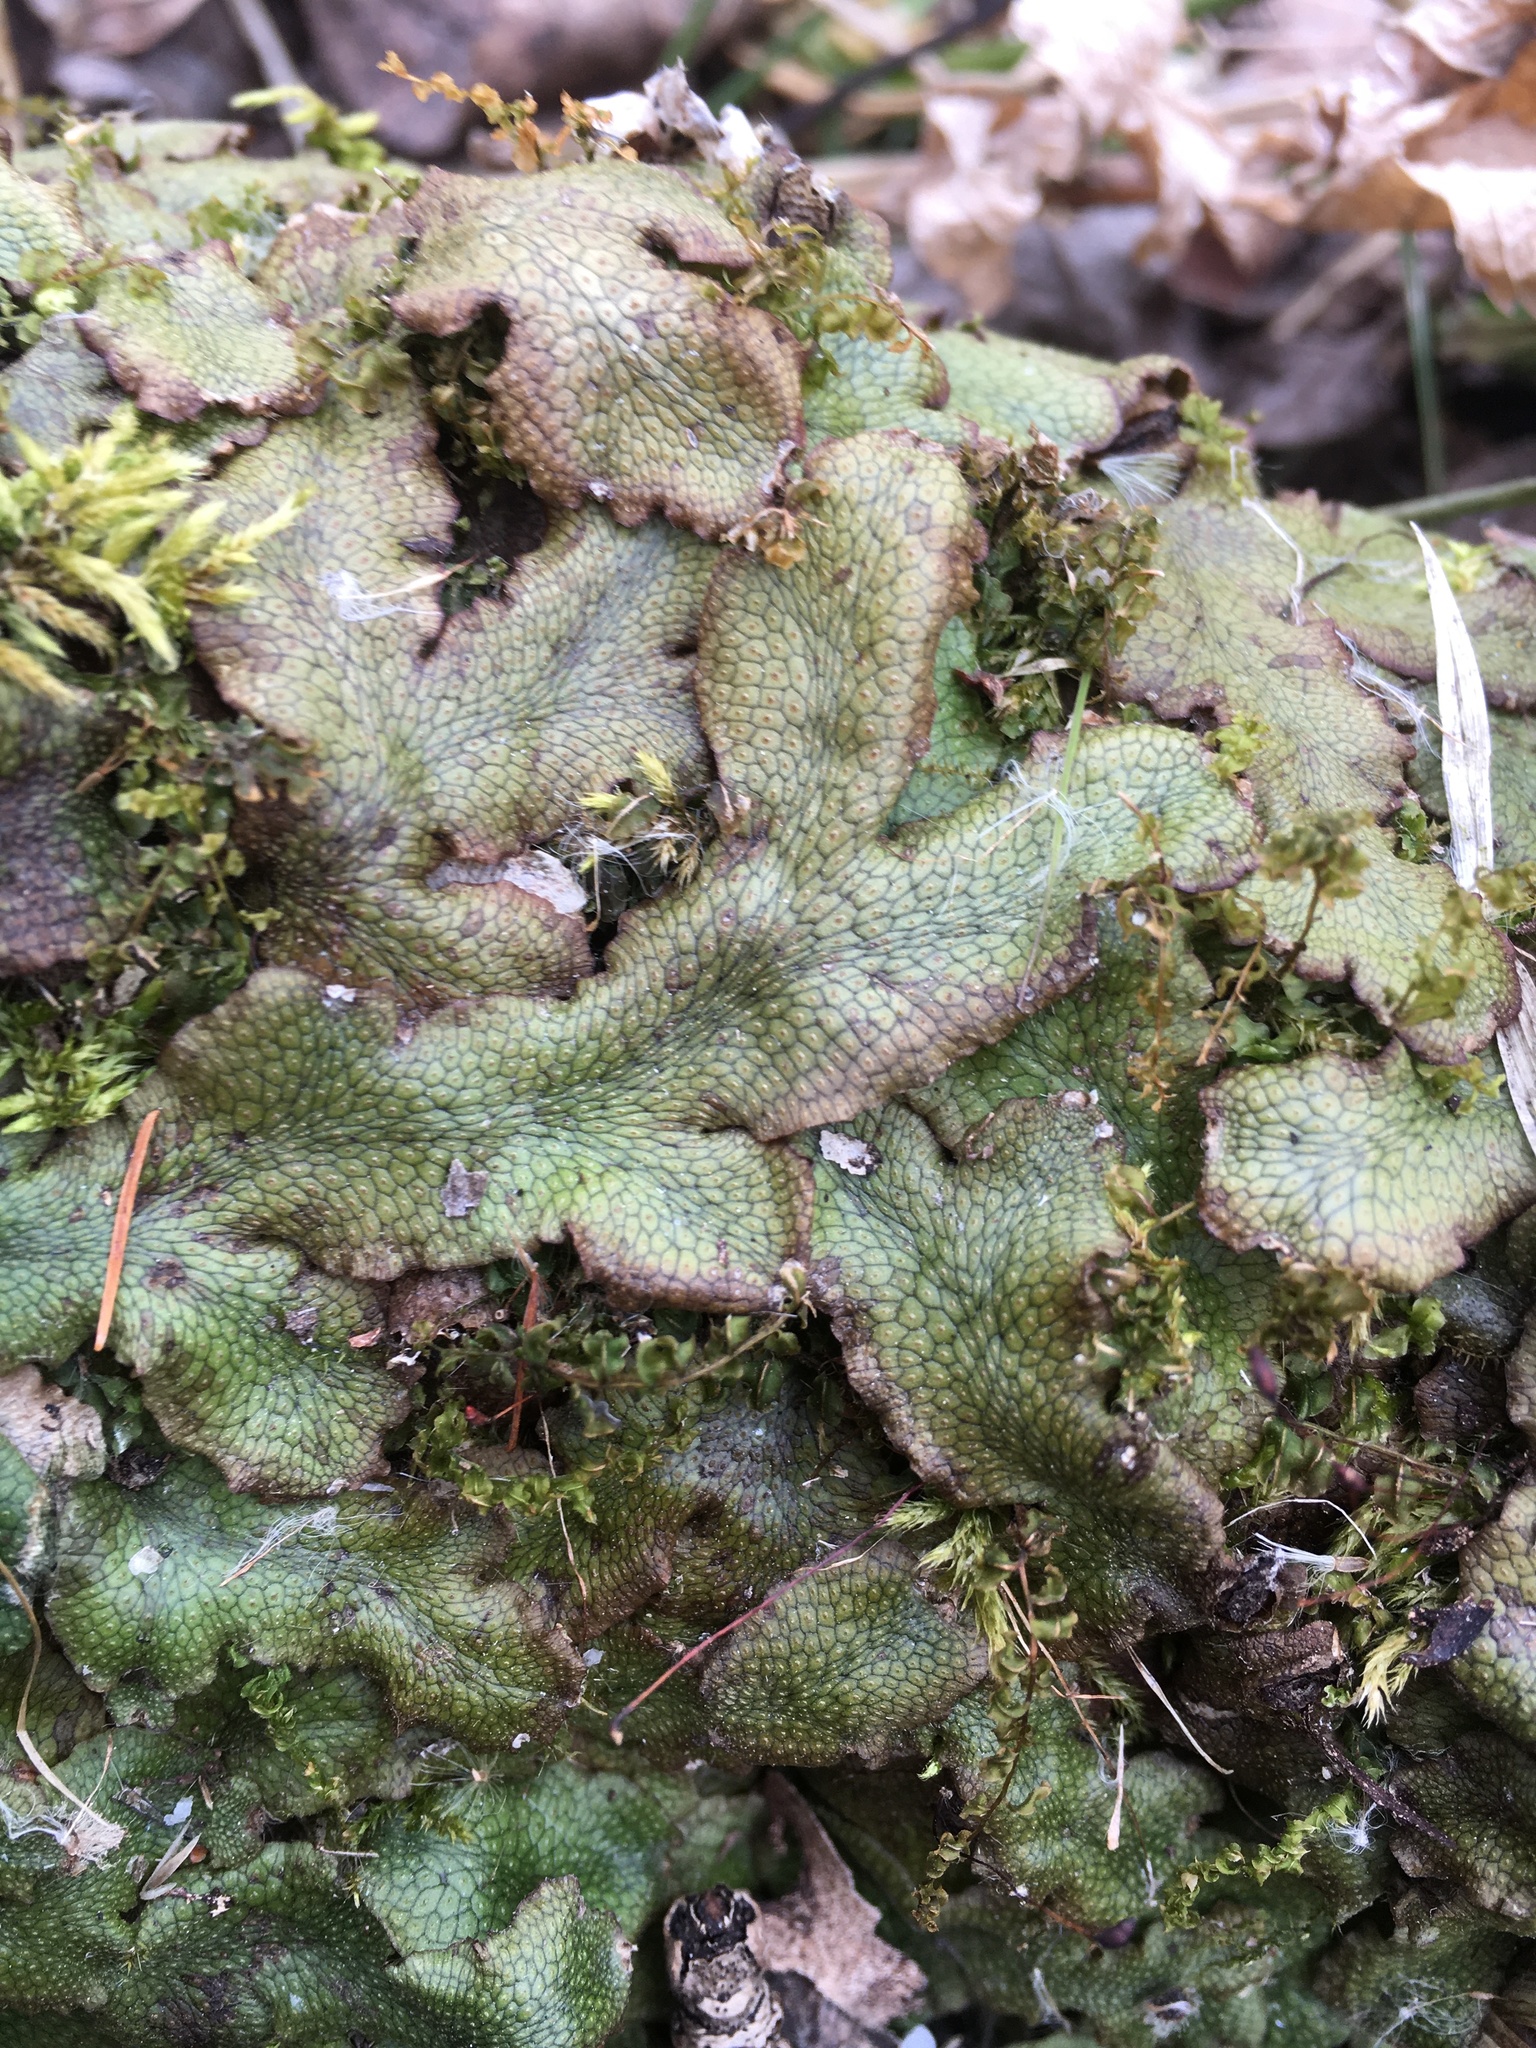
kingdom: Plantae
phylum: Marchantiophyta
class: Marchantiopsida
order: Marchantiales
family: Conocephalaceae
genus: Conocephalum
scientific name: Conocephalum salebrosum
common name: Cat-tongue liverwort
